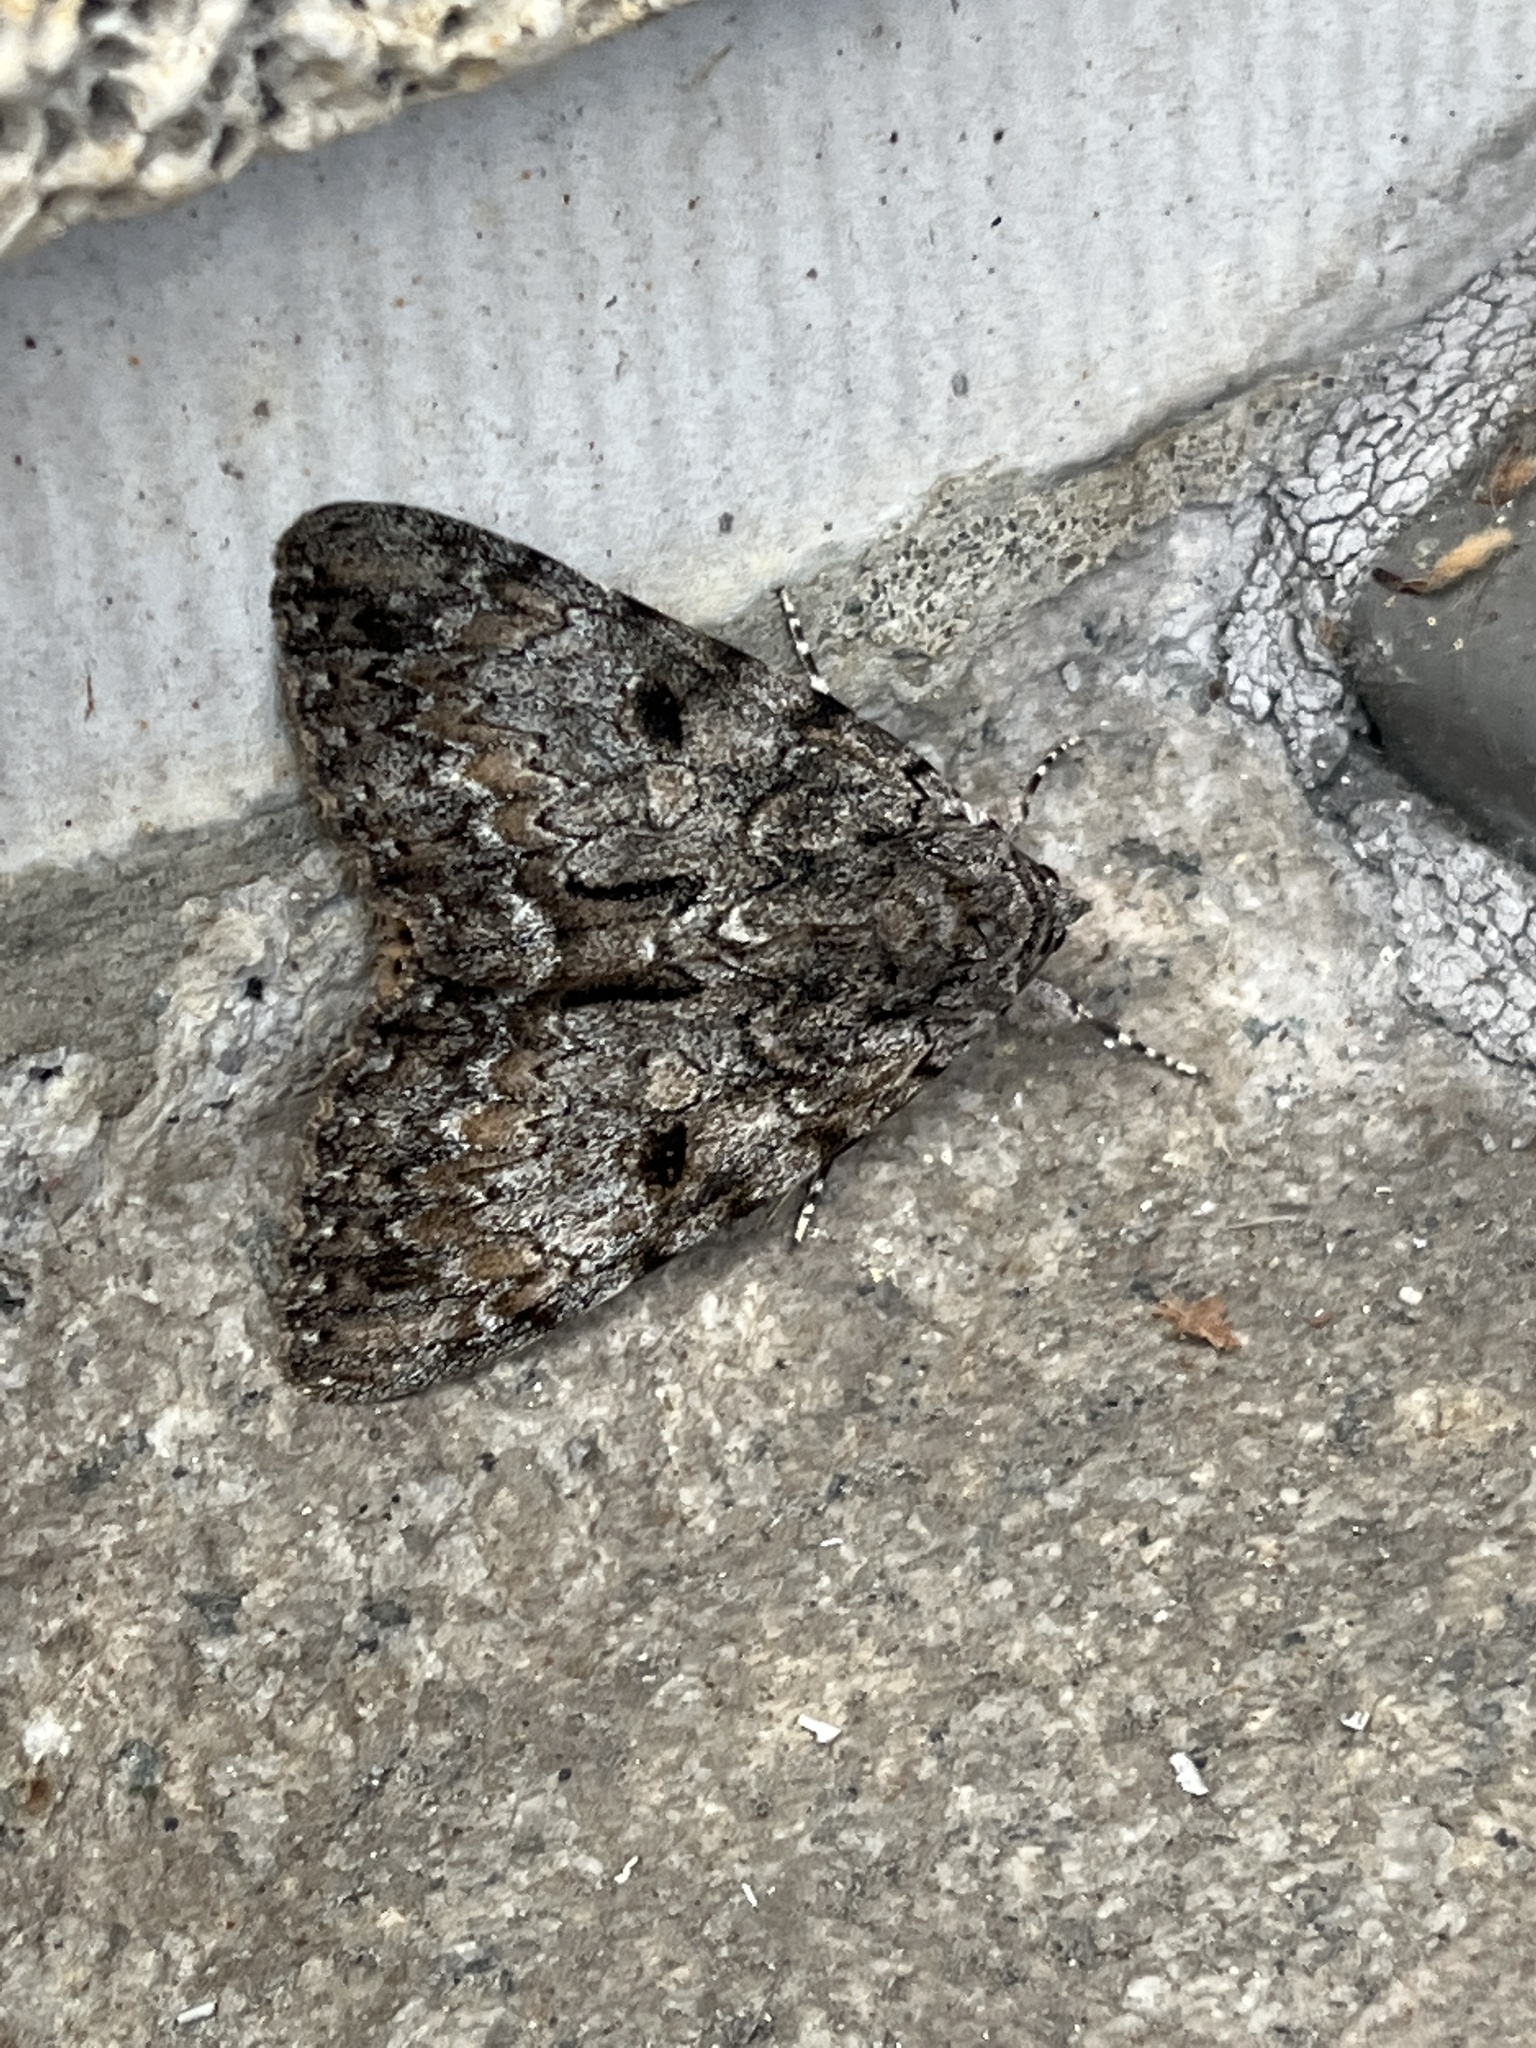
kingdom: Animalia
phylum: Arthropoda
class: Insecta
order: Lepidoptera
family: Erebidae
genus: Catocala
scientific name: Catocala palaeogama
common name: Oldwife underwing
